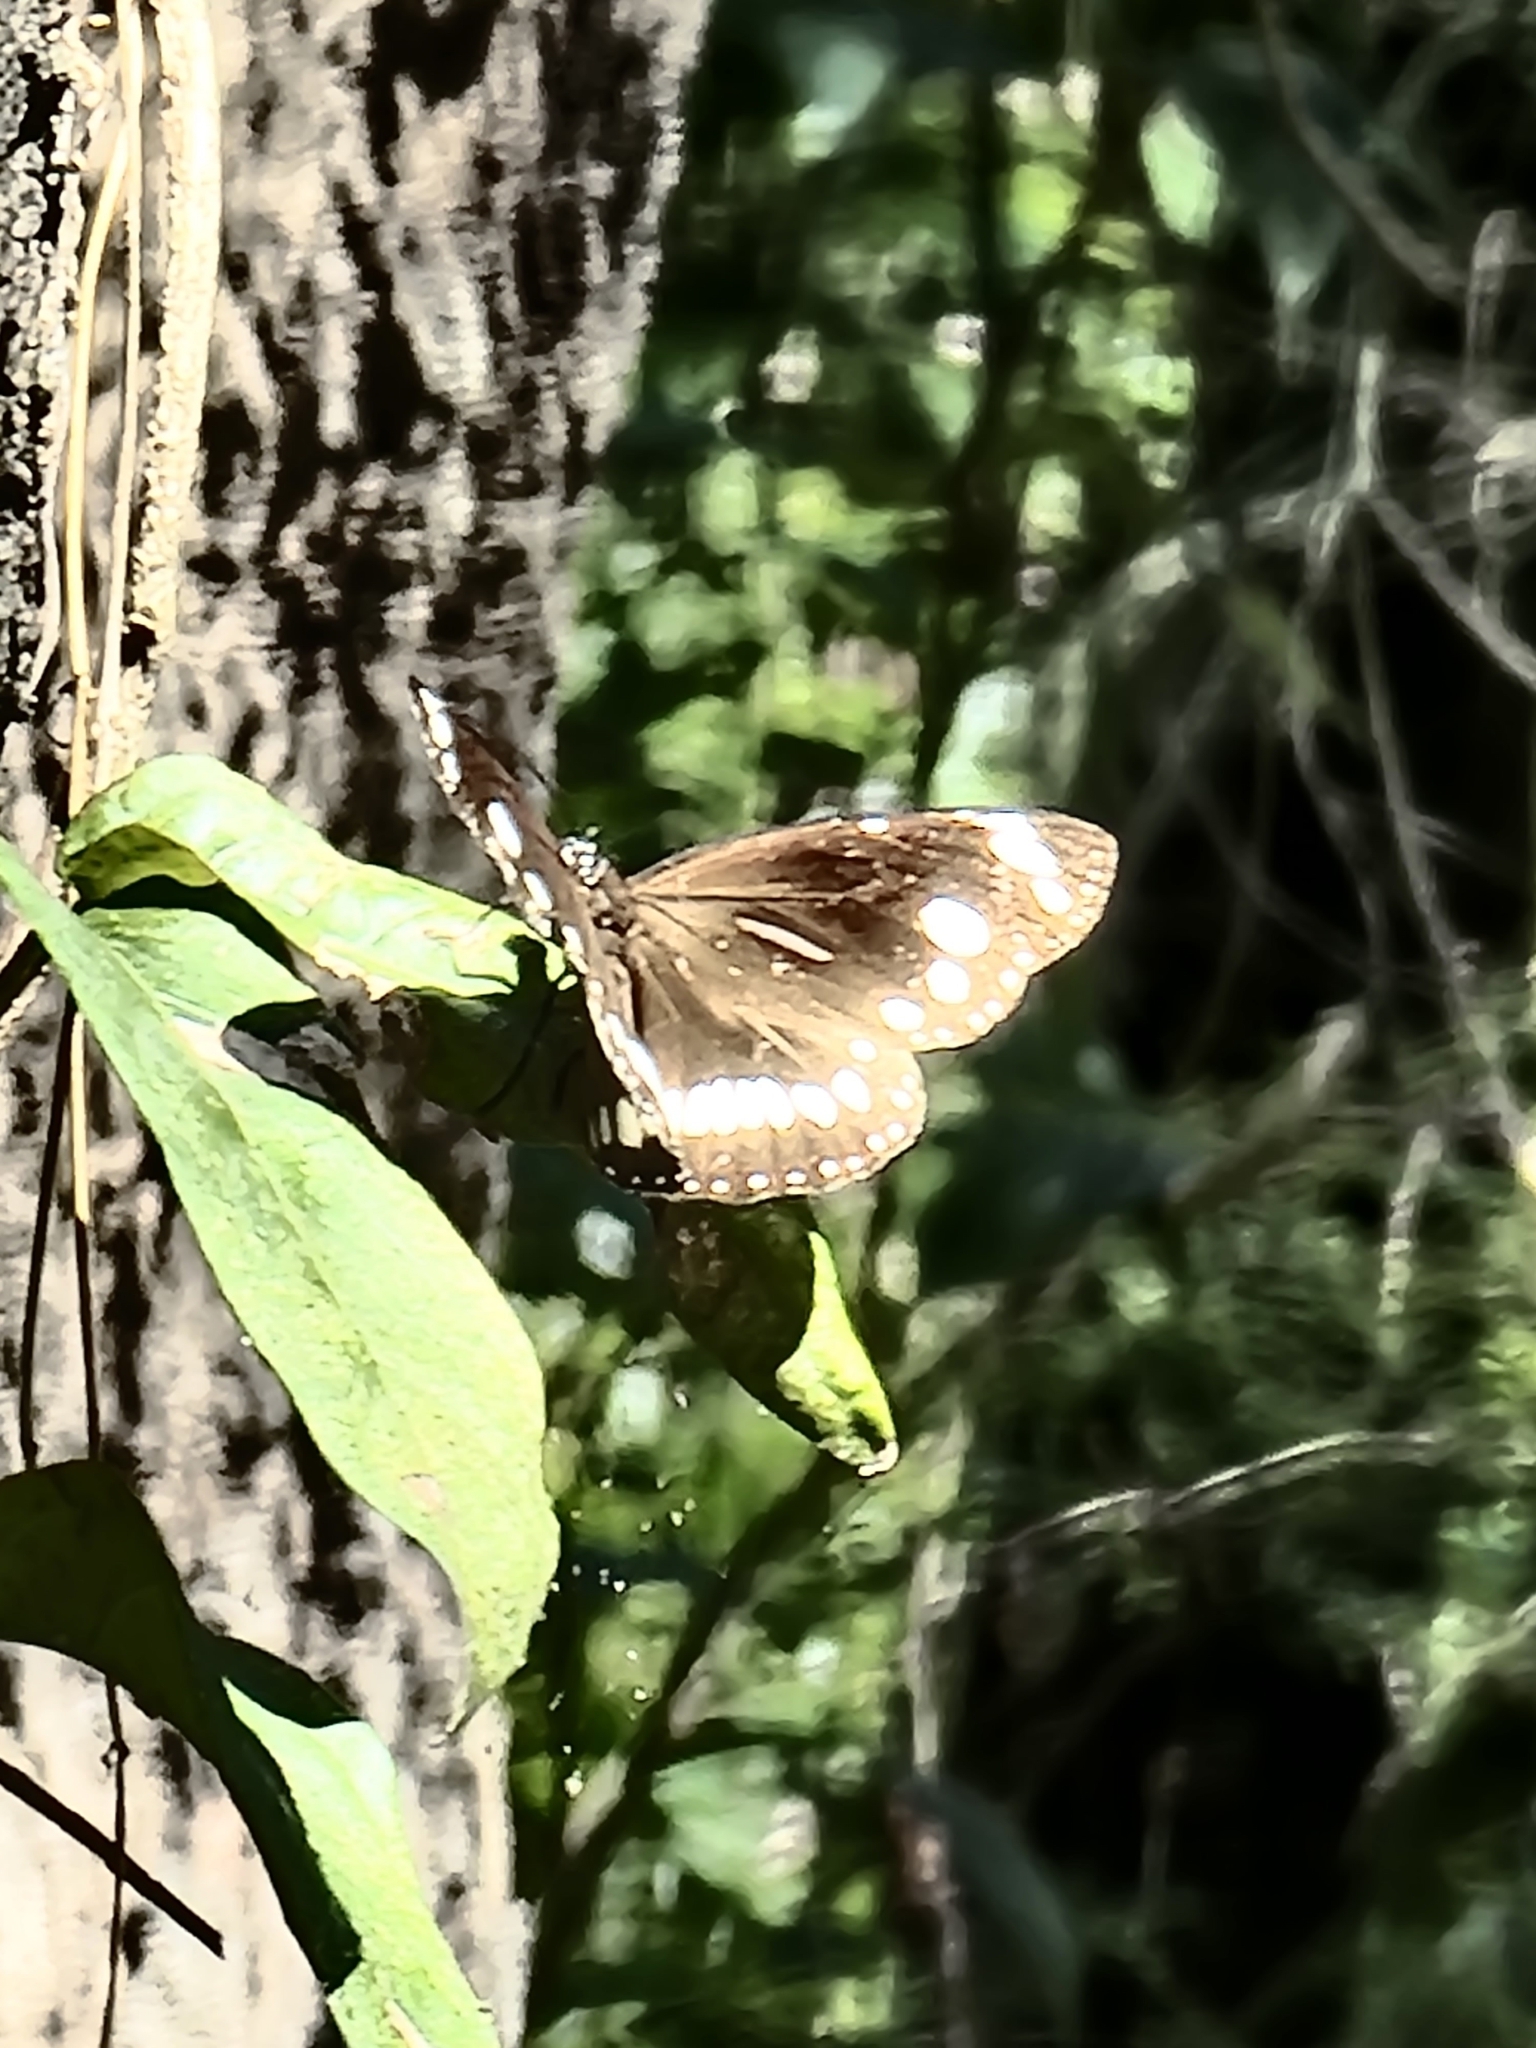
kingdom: Animalia
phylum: Arthropoda
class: Insecta
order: Lepidoptera
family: Nymphalidae
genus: Euploea
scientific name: Euploea core
